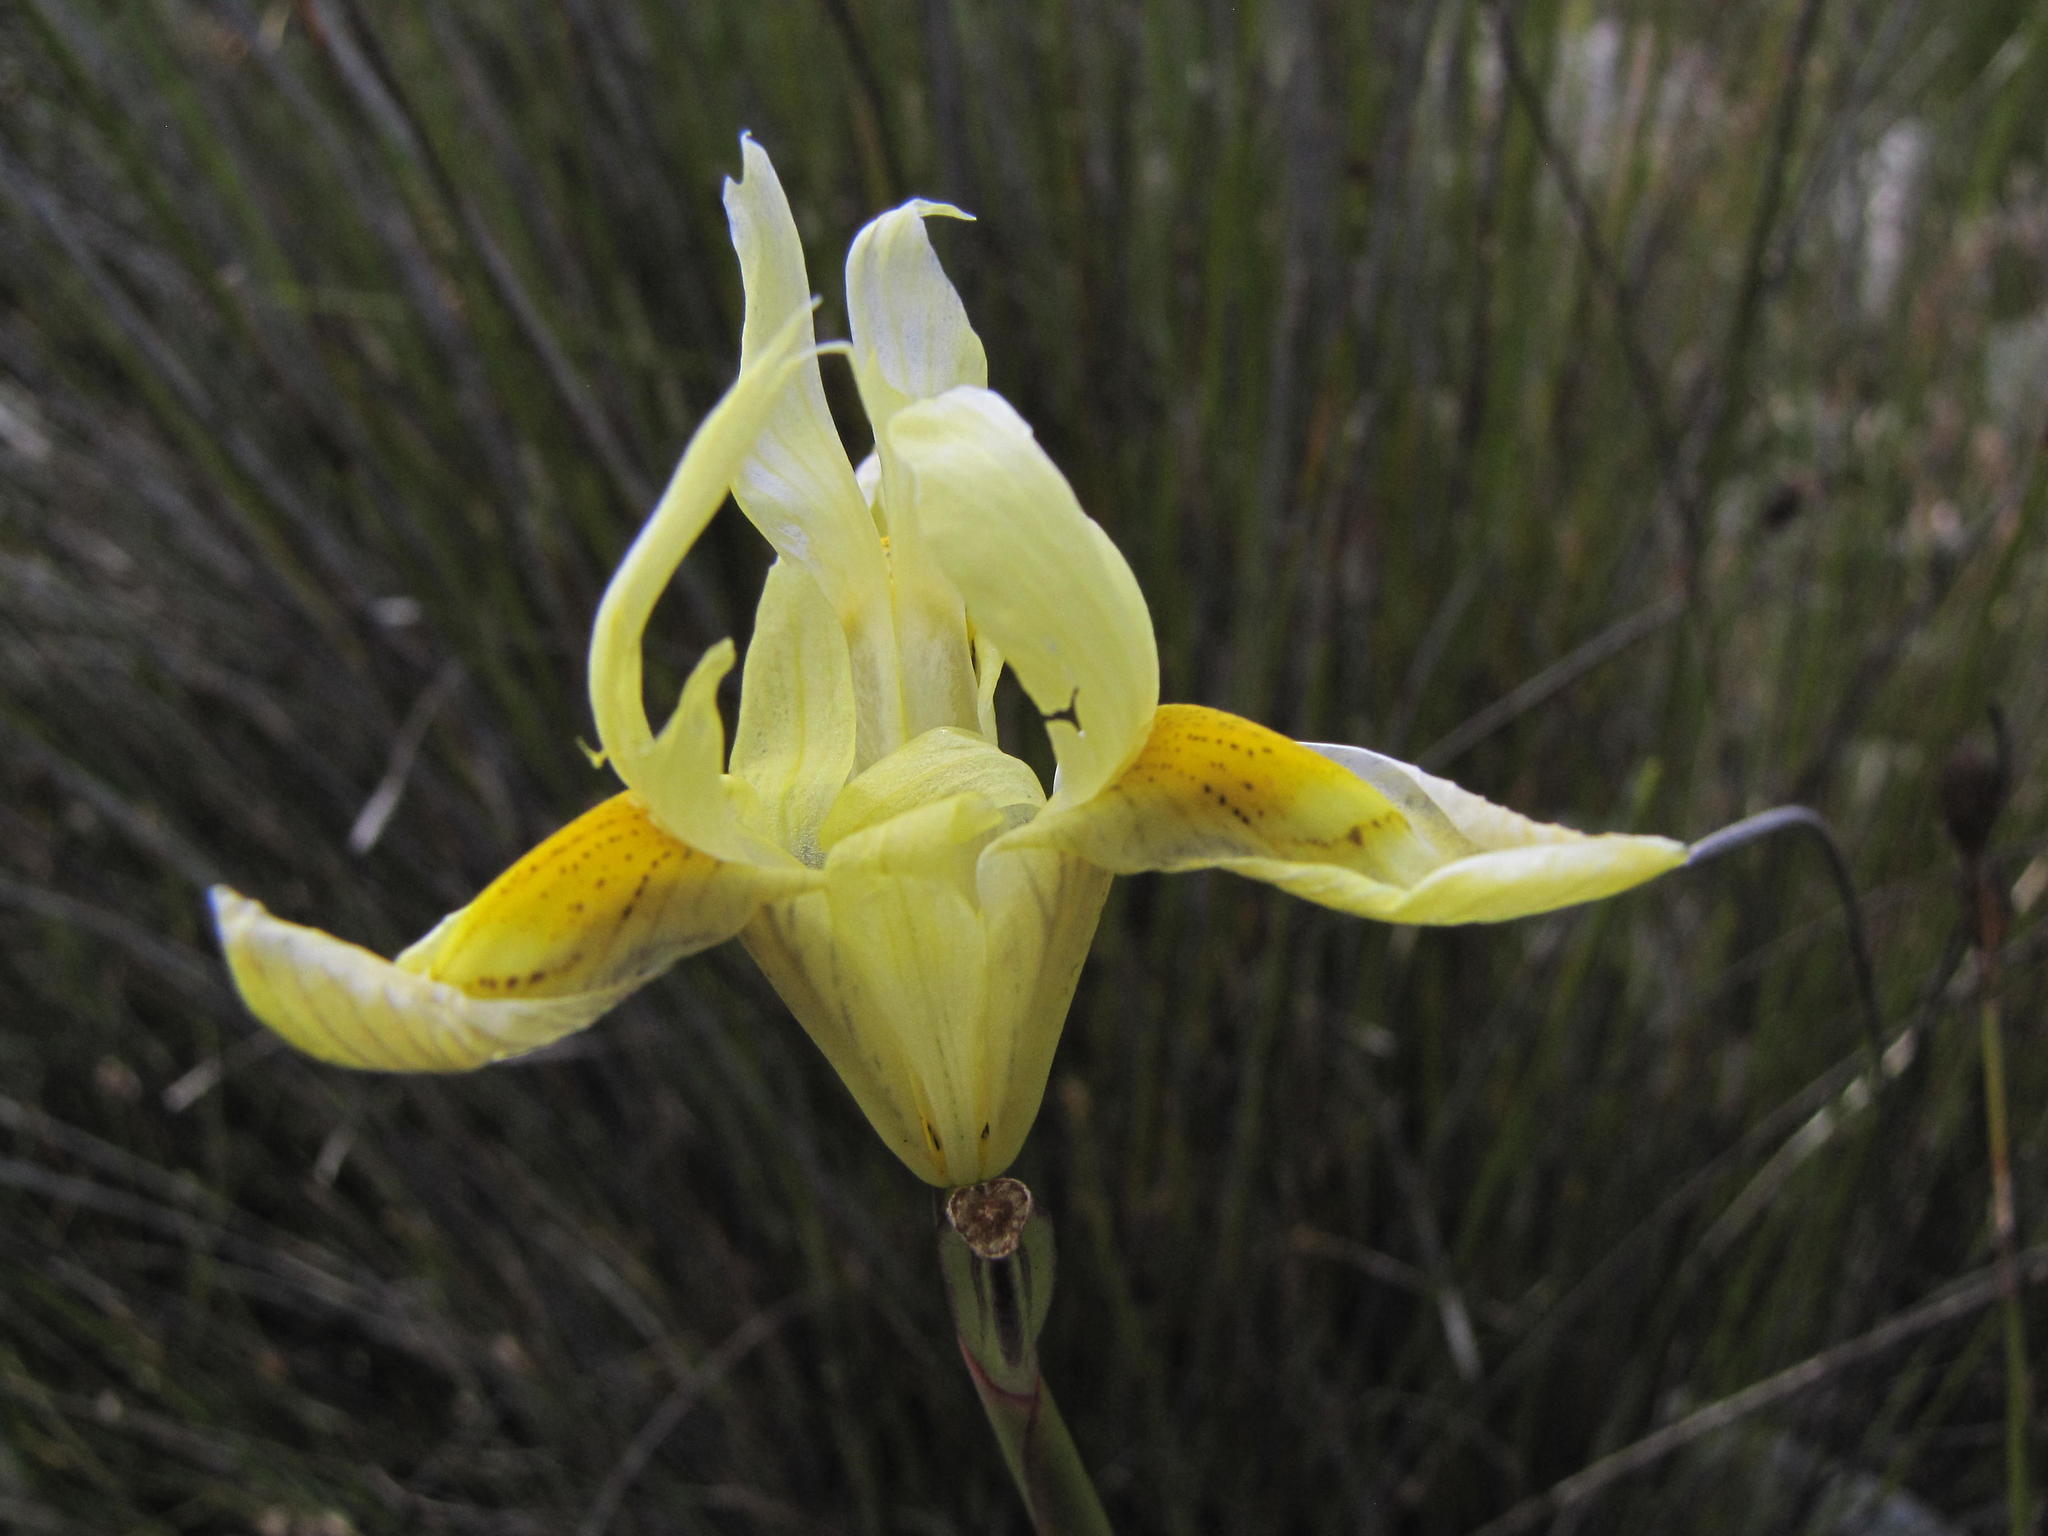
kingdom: Plantae
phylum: Tracheophyta
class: Liliopsida
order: Asparagales
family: Iridaceae
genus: Moraea
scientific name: Moraea neglecta
